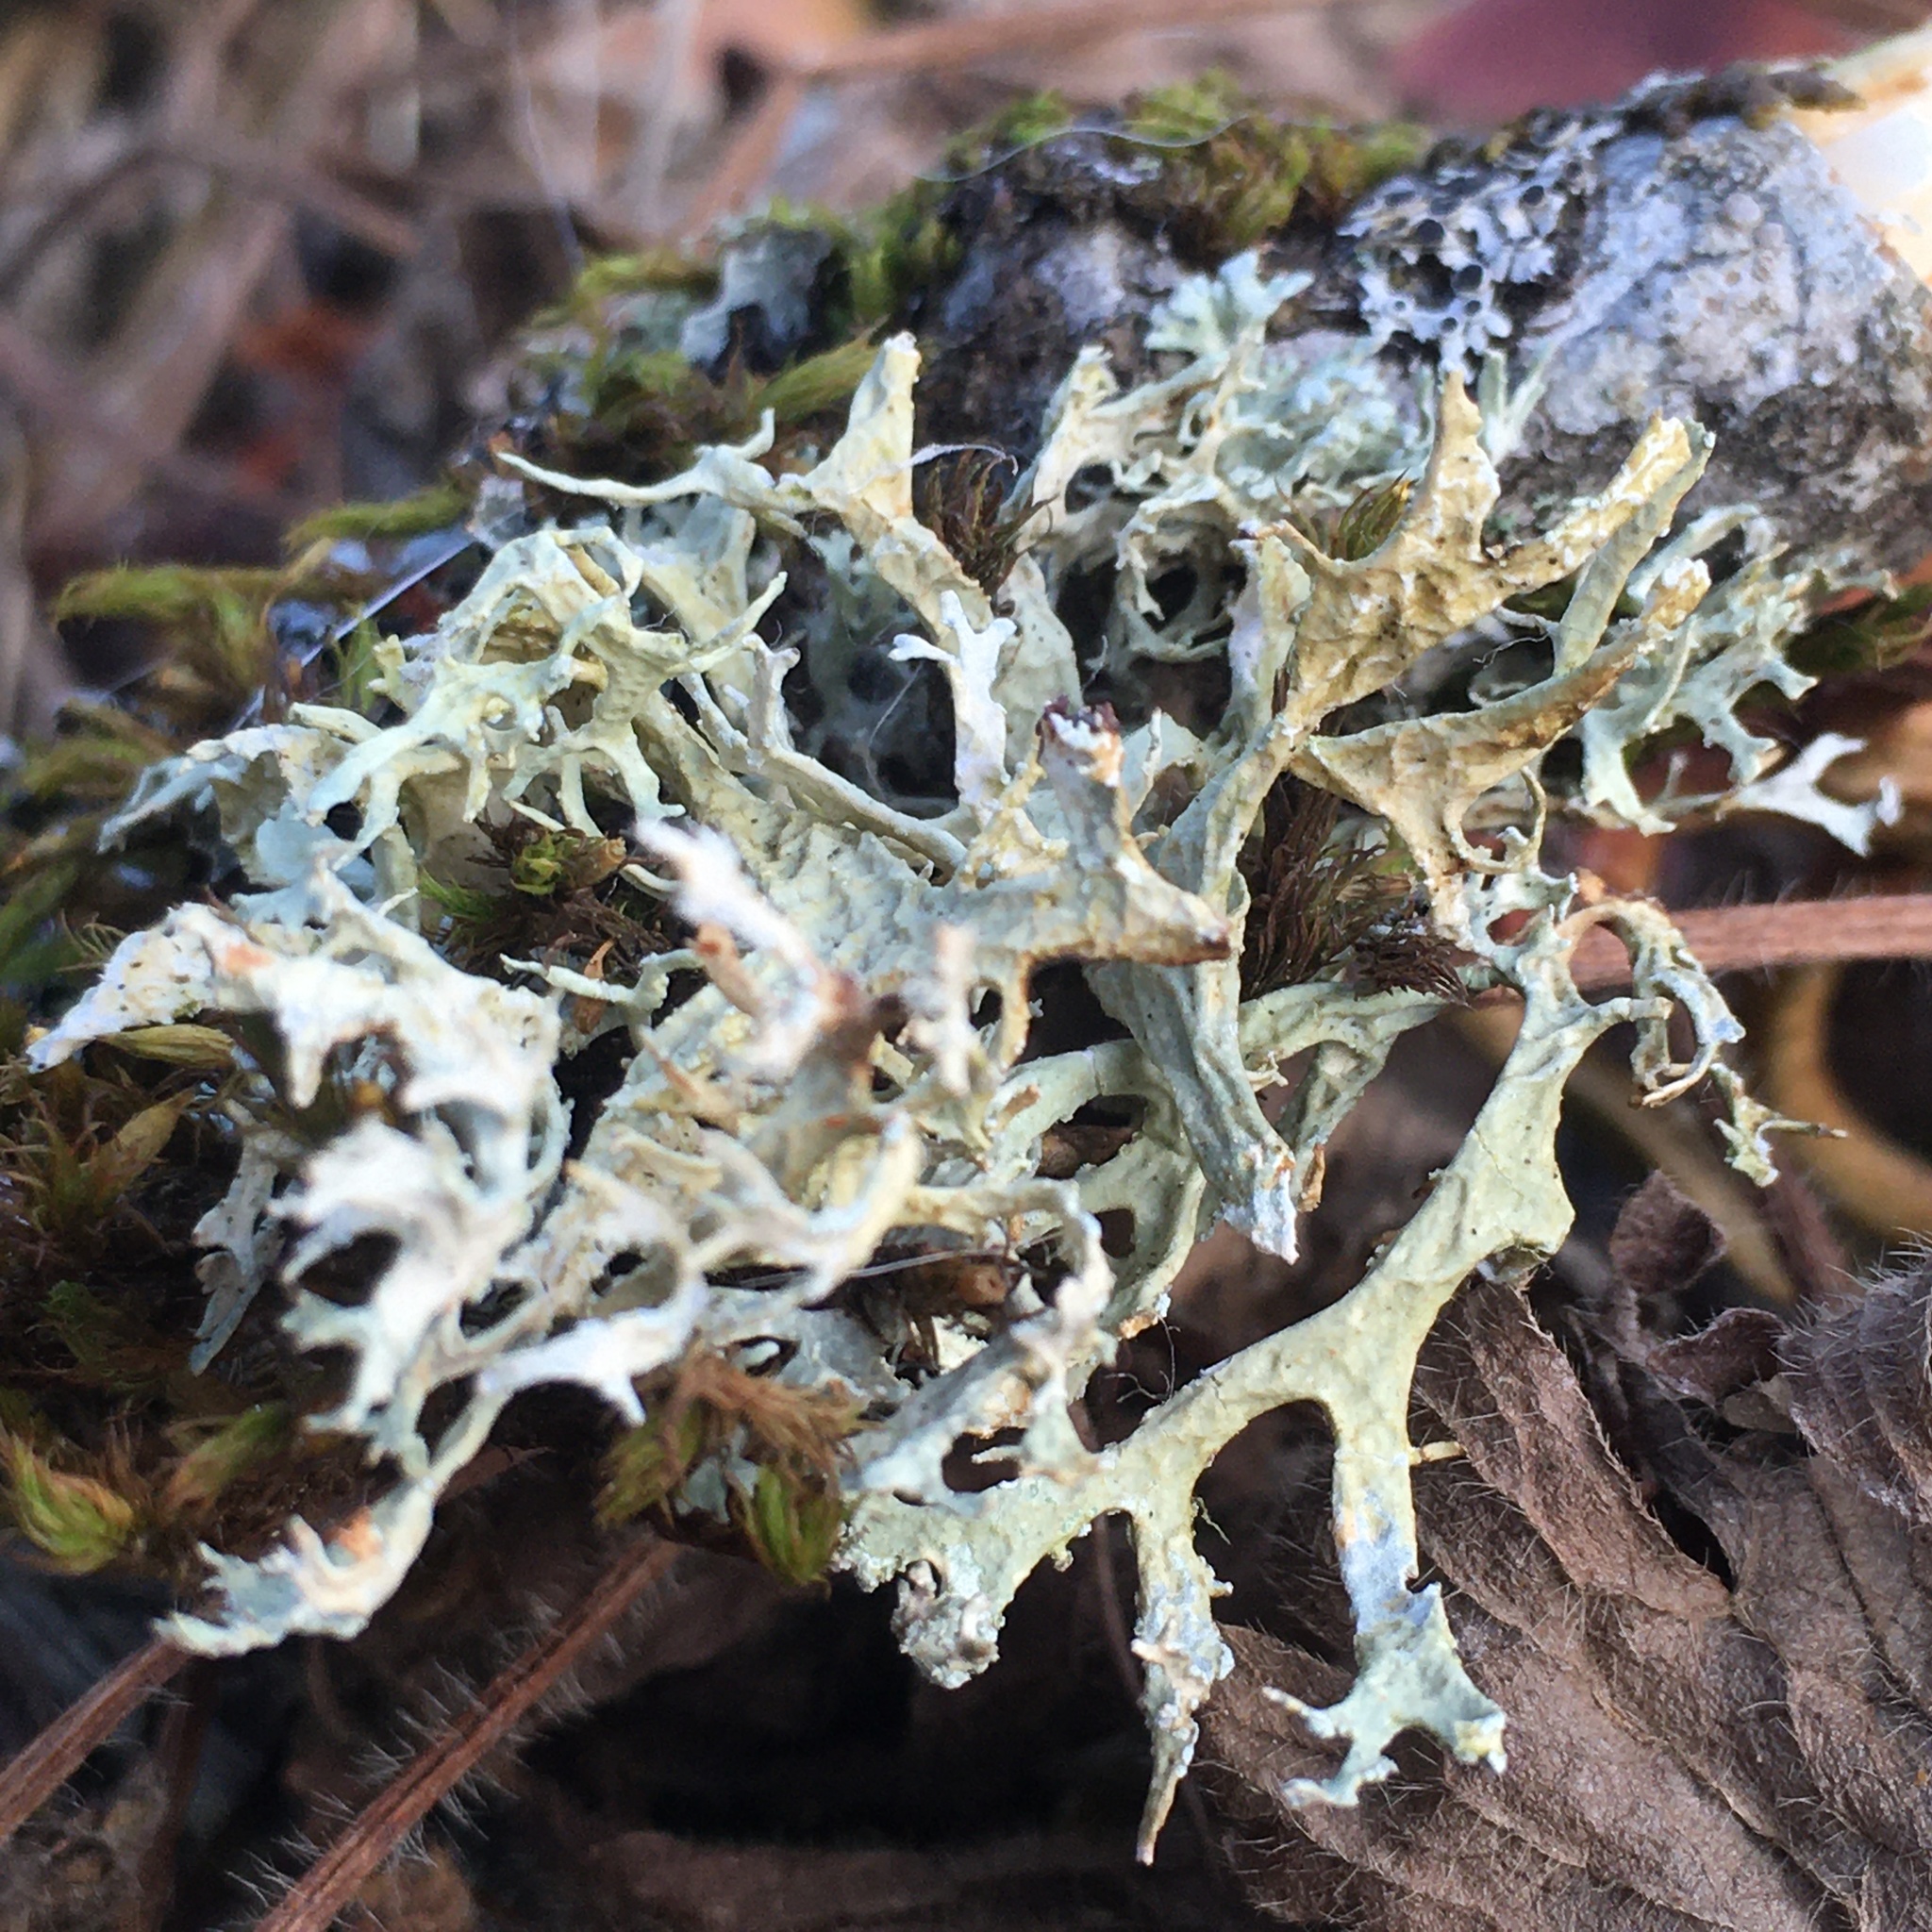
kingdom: Fungi
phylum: Ascomycota
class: Lecanoromycetes
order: Lecanorales
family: Parmeliaceae
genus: Evernia
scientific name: Evernia prunastri
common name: Oak moss
